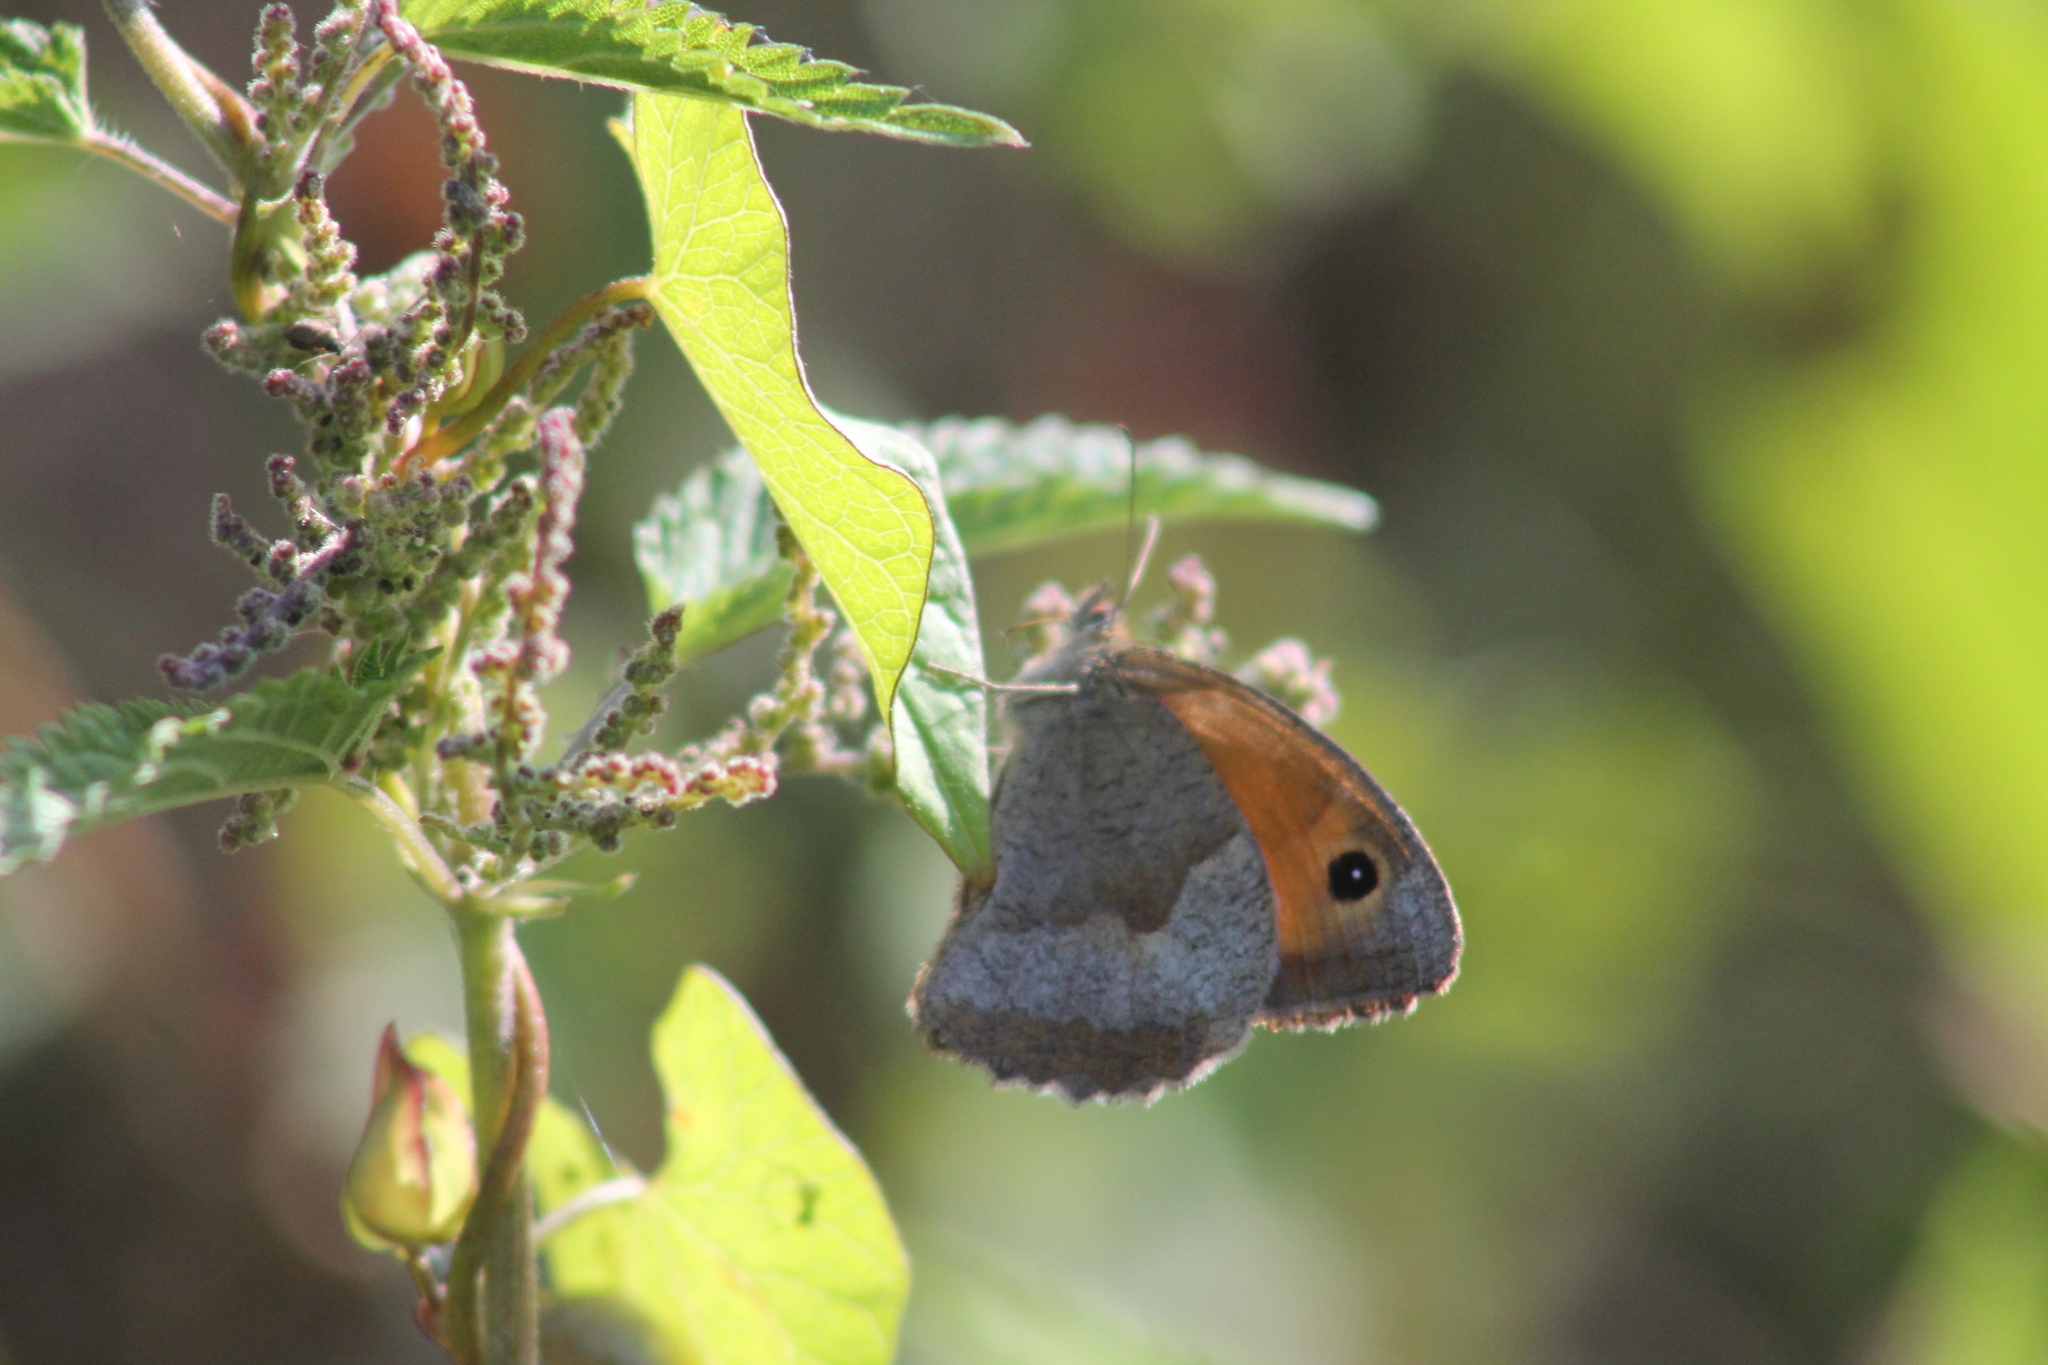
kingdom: Animalia
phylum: Arthropoda
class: Insecta
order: Lepidoptera
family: Nymphalidae
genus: Maniola
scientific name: Maniola jurtina
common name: Meadow brown
